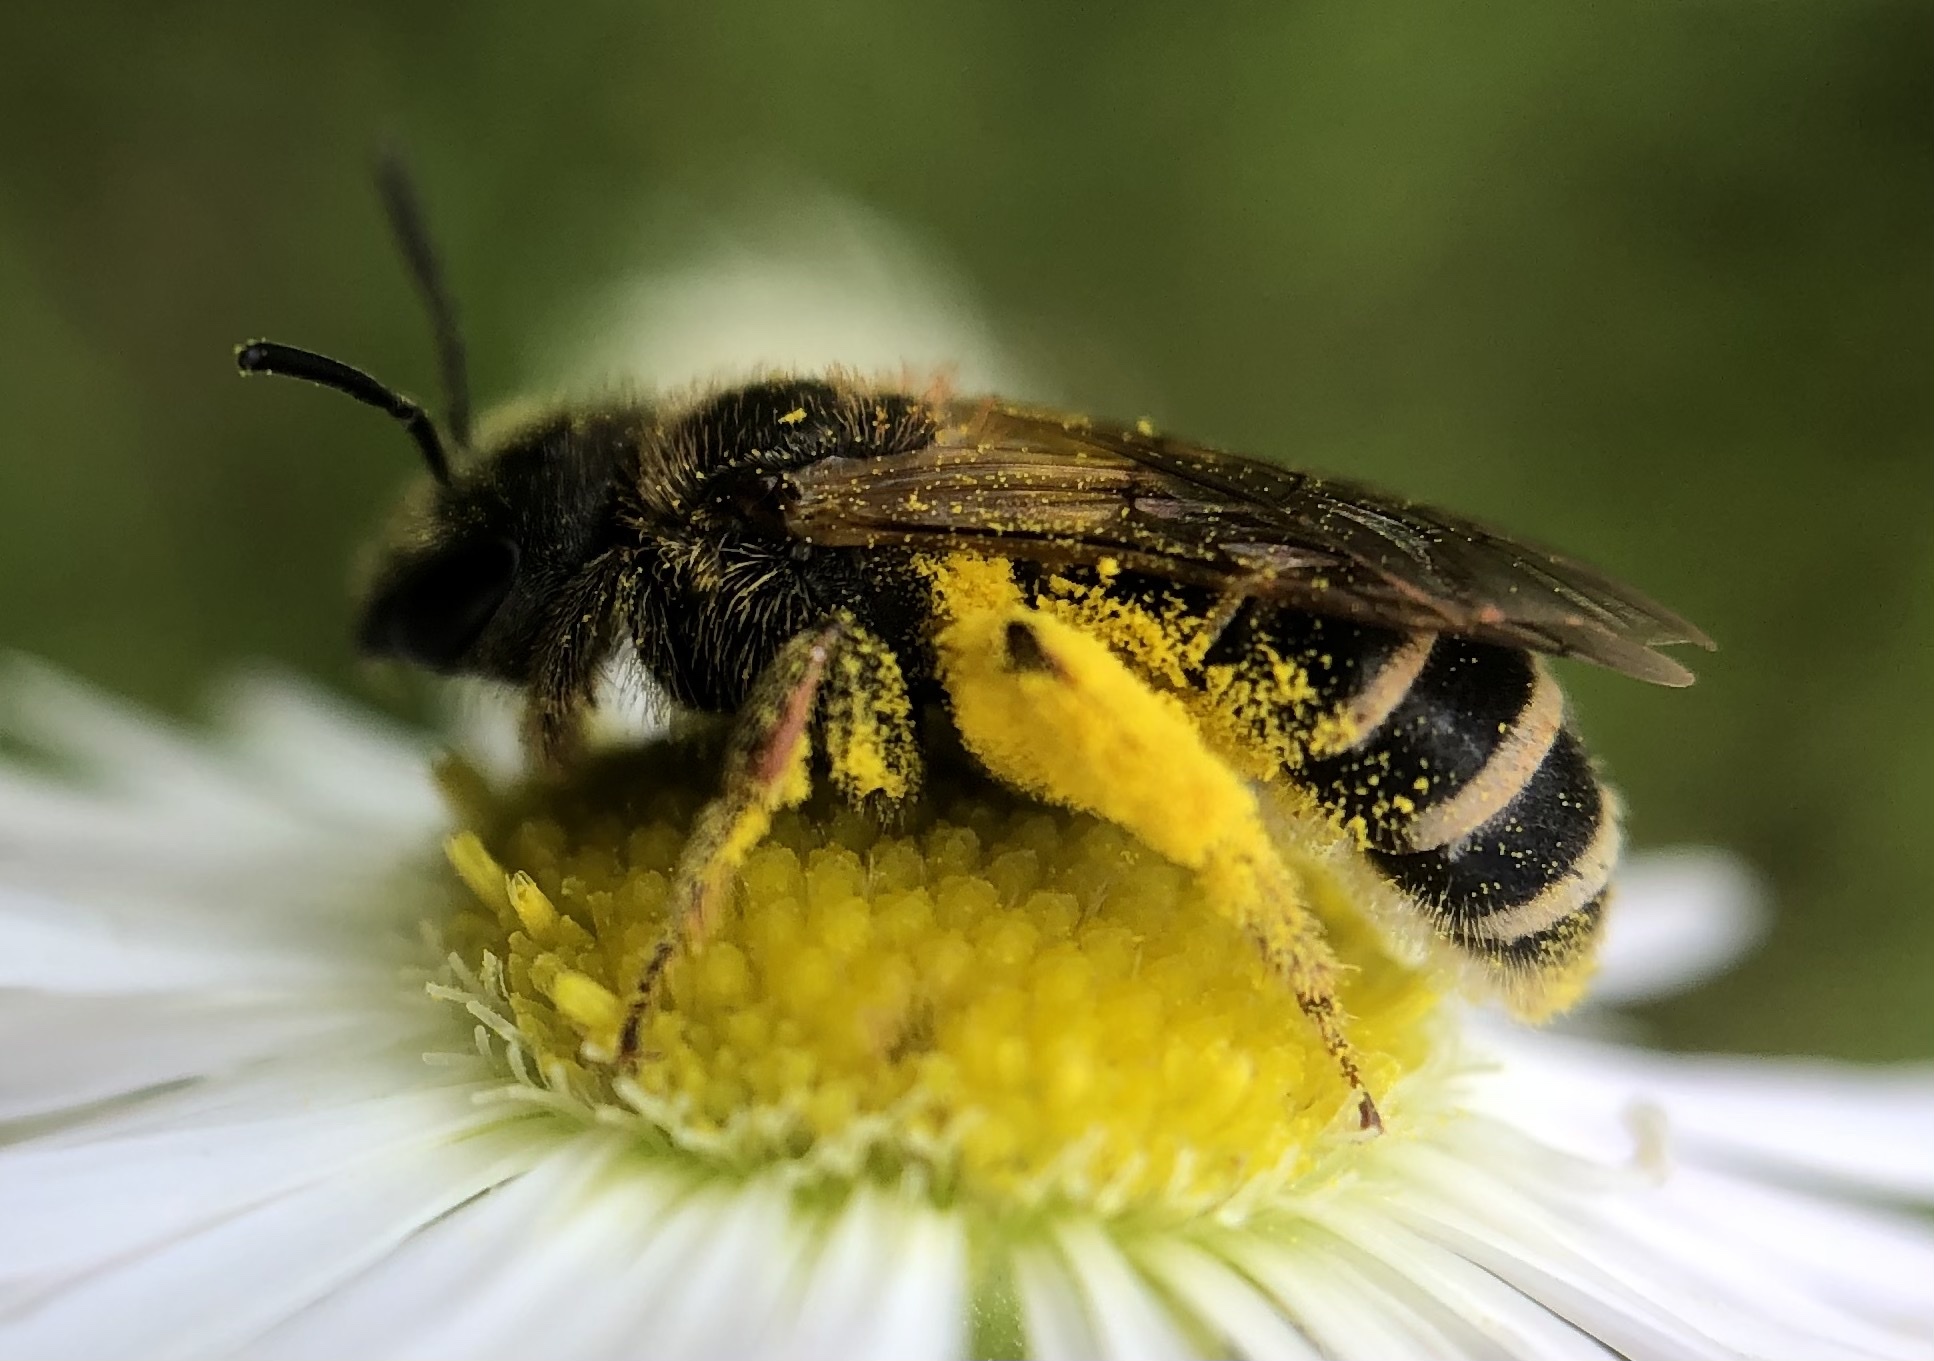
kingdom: Animalia
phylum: Arthropoda
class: Insecta
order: Hymenoptera
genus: Odontalictus
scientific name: Odontalictus
